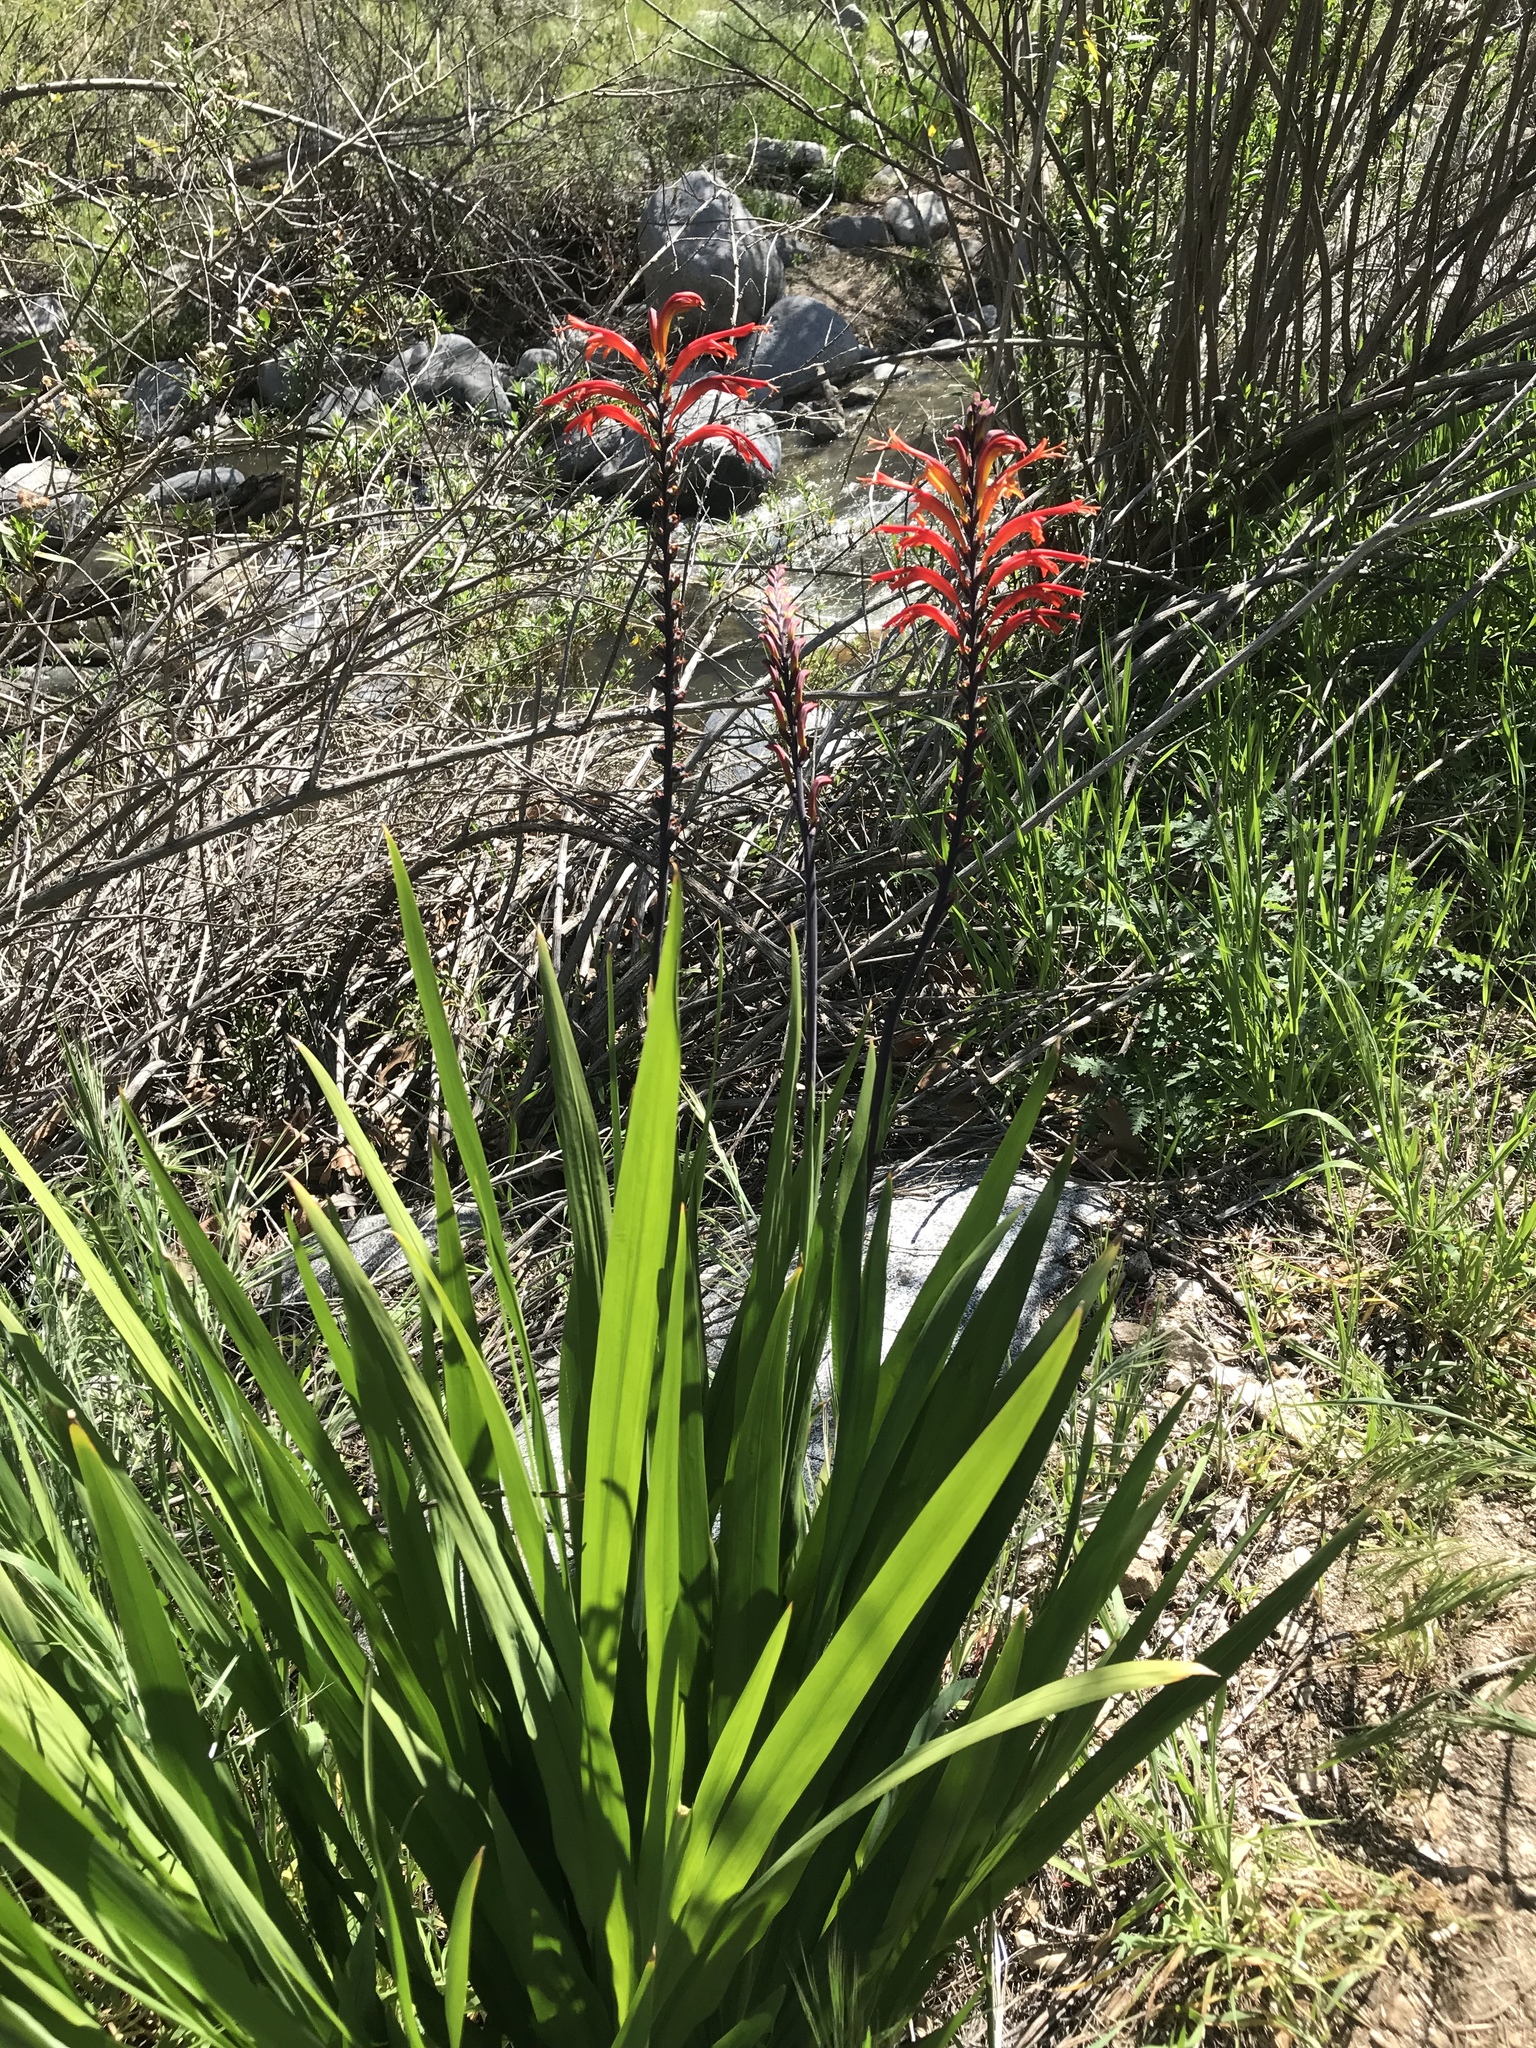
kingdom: Plantae
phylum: Tracheophyta
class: Liliopsida
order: Asparagales
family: Iridaceae
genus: Chasmanthe
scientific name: Chasmanthe floribunda
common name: African cornflag
